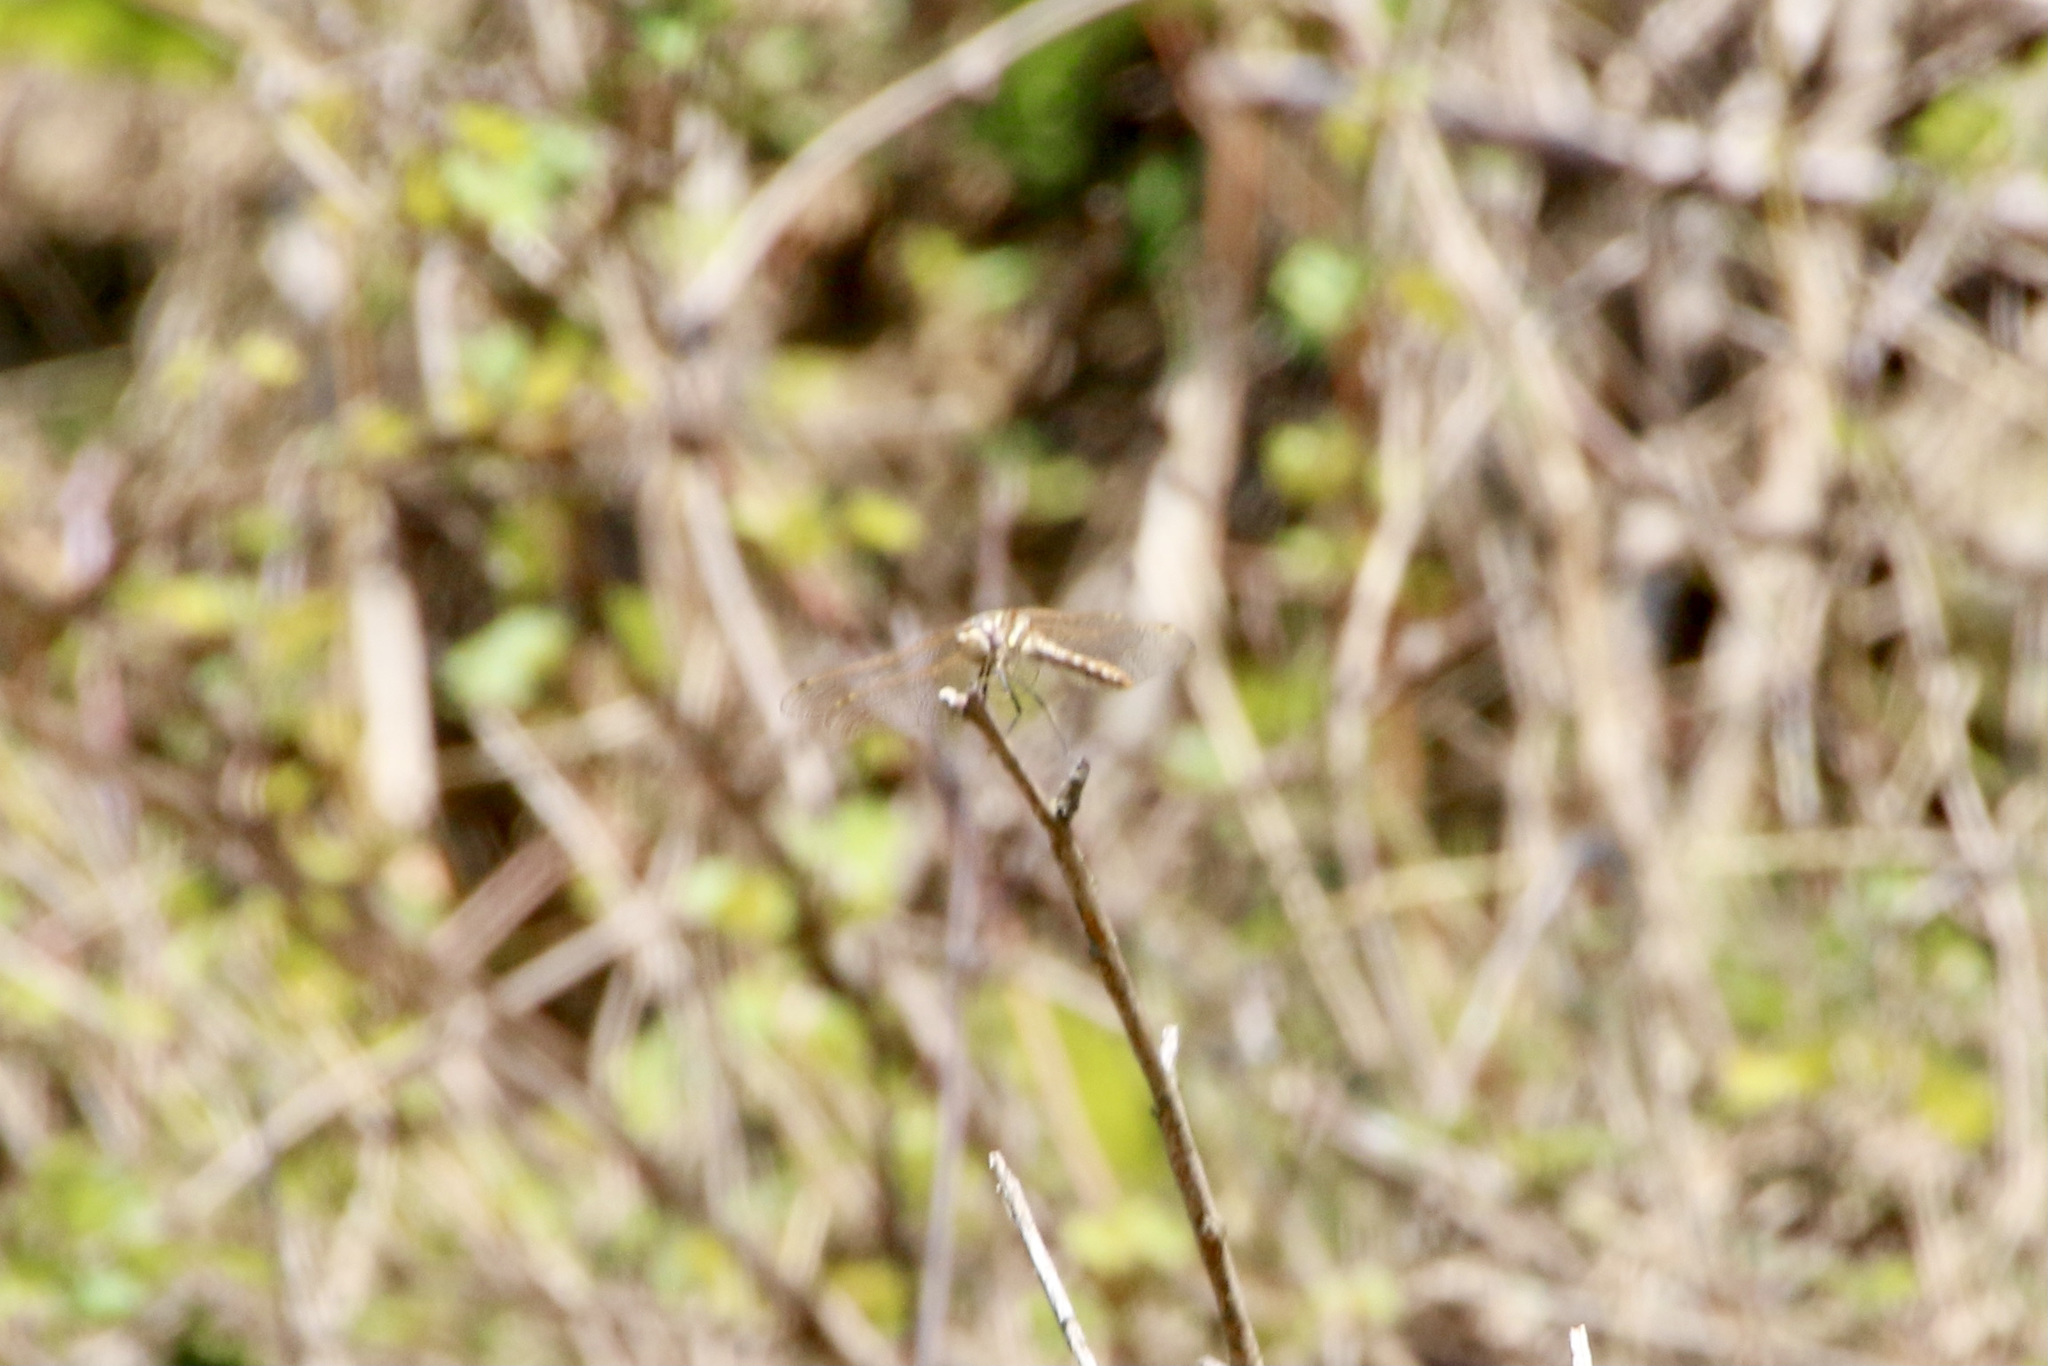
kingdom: Animalia
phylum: Arthropoda
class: Insecta
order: Odonata
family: Libellulidae
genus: Sympetrum
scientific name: Sympetrum corruptum
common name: Variegated meadowhawk
